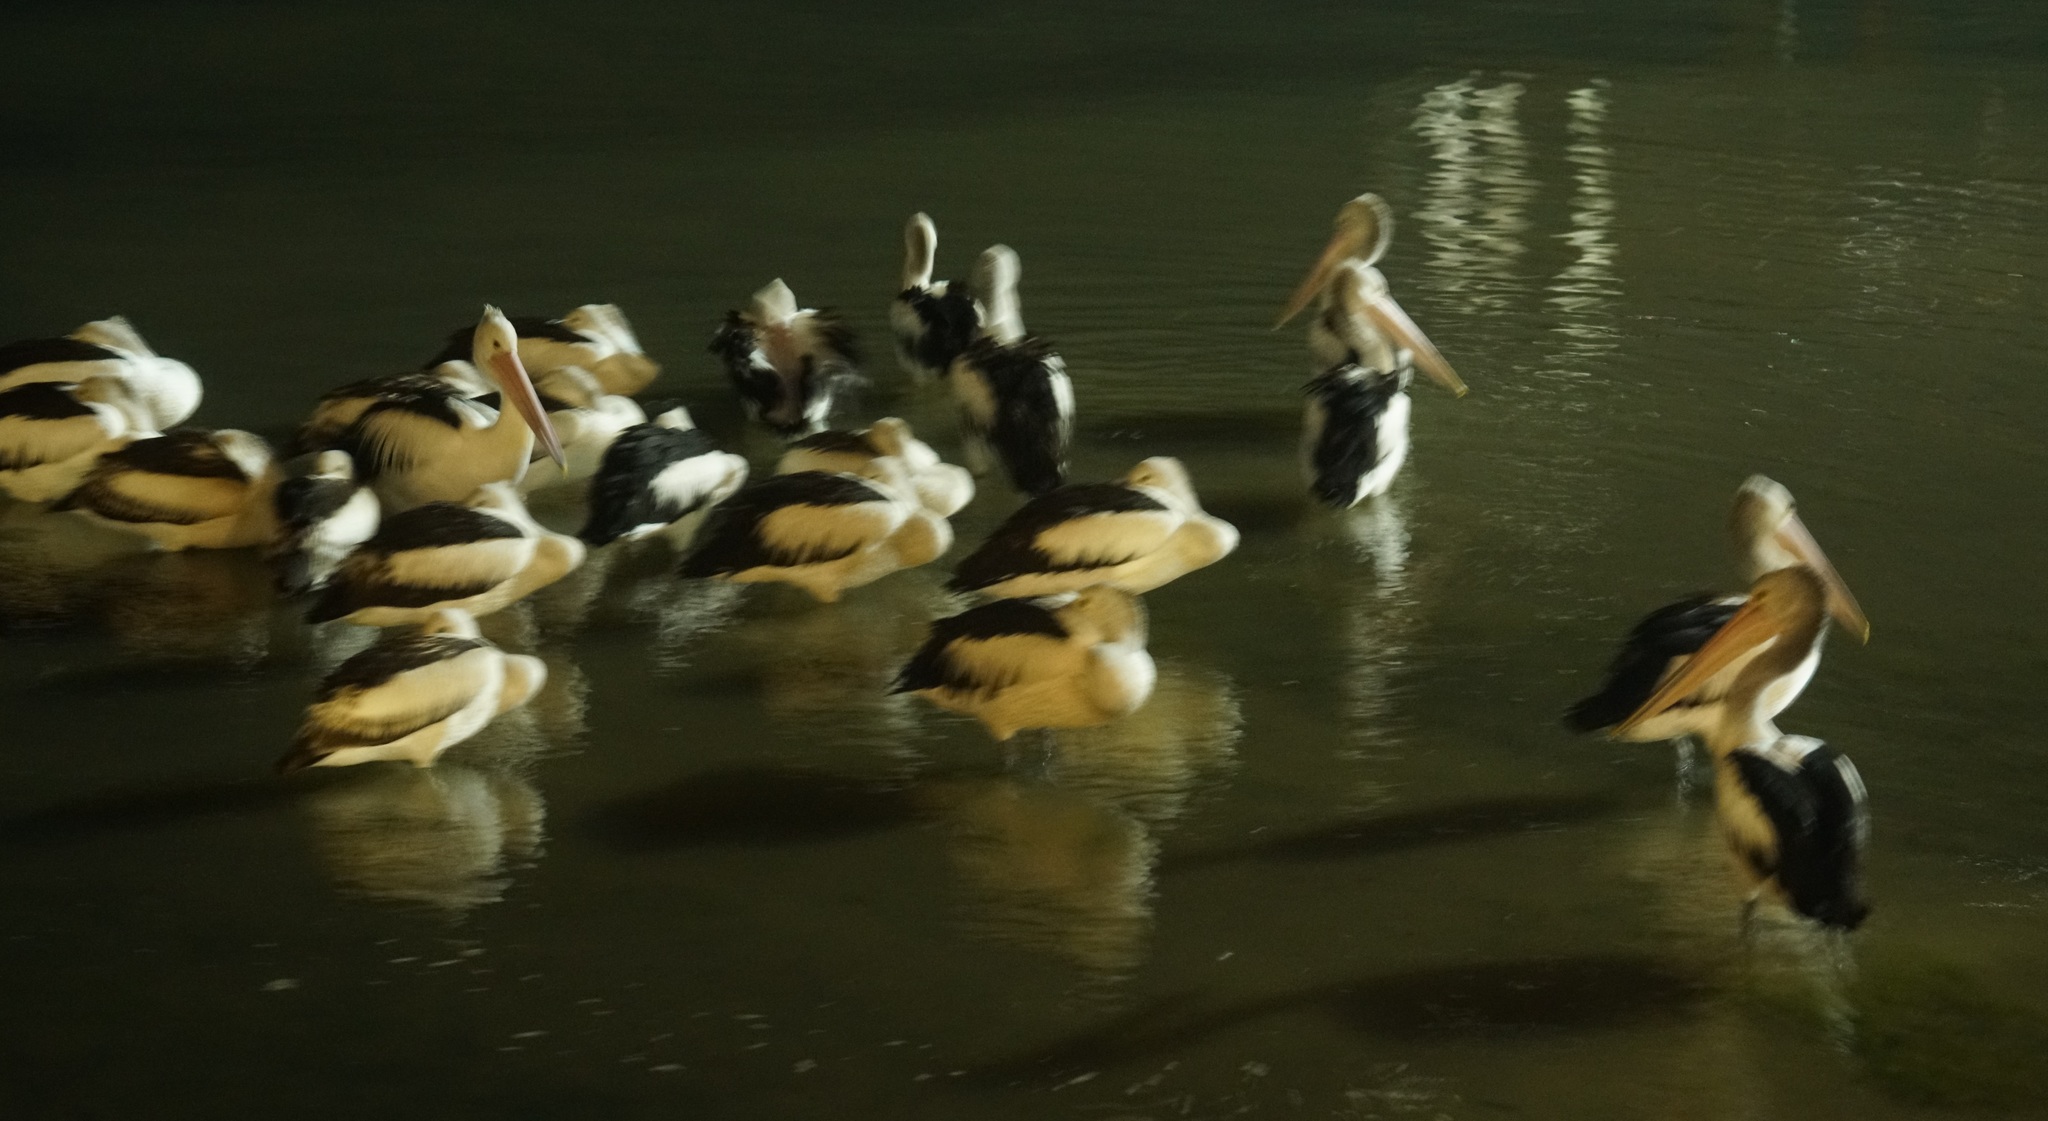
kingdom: Animalia
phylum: Chordata
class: Aves
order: Pelecaniformes
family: Pelecanidae
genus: Pelecanus
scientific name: Pelecanus conspicillatus
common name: Australian pelican
